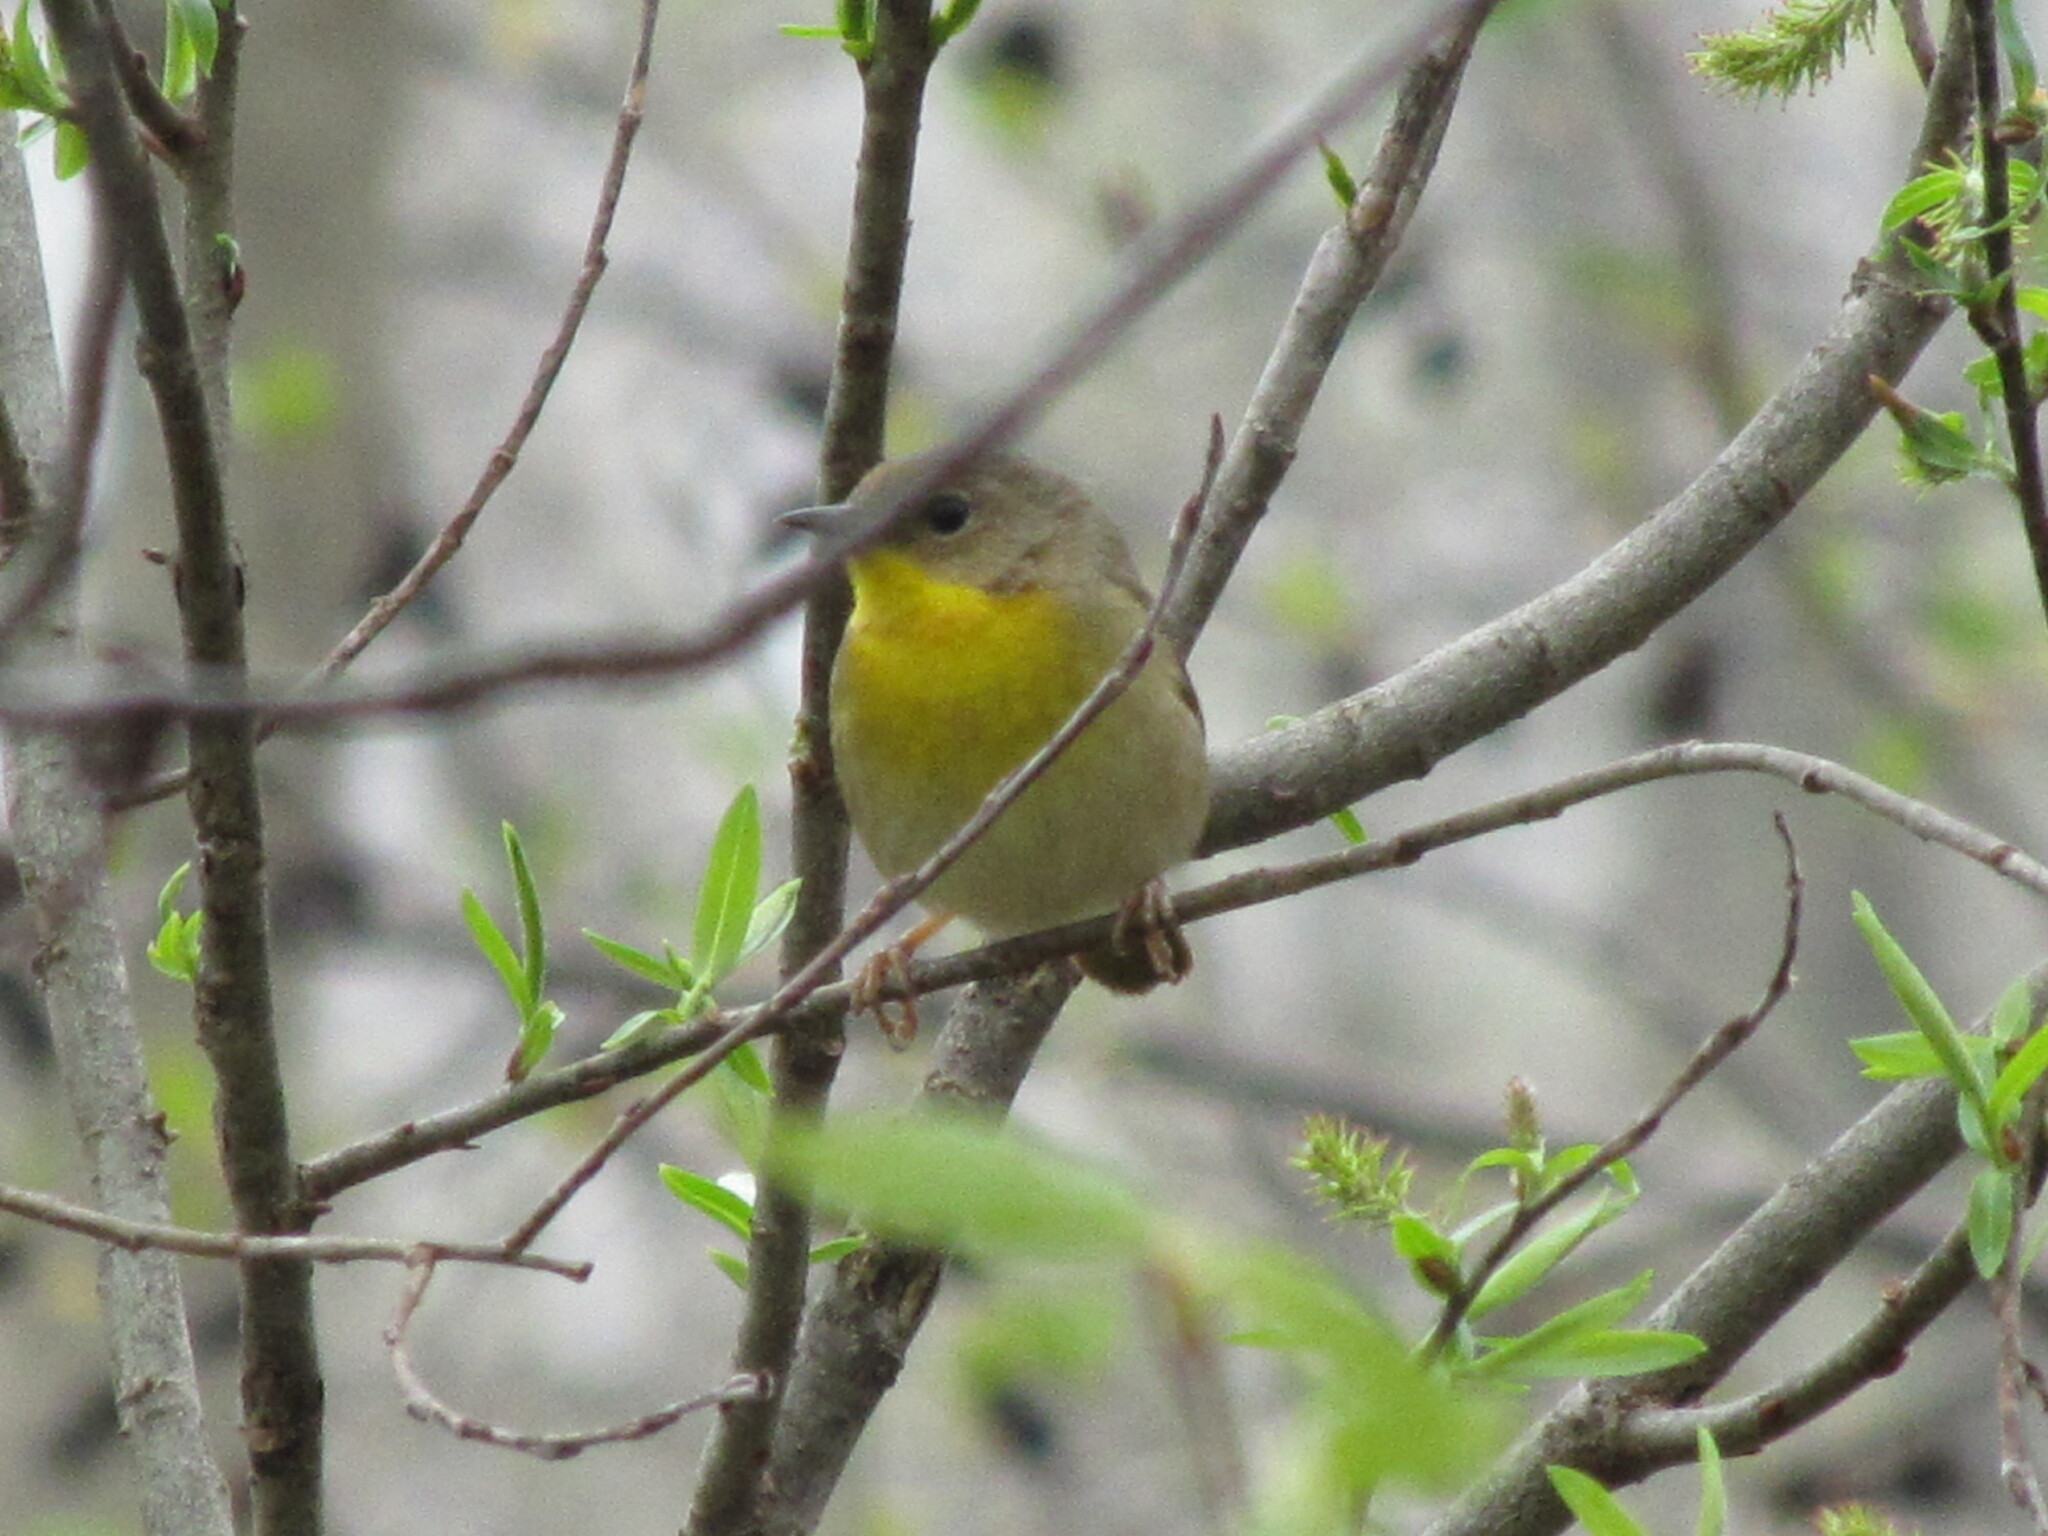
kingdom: Animalia
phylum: Chordata
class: Aves
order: Passeriformes
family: Parulidae
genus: Geothlypis
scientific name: Geothlypis trichas
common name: Common yellowthroat
